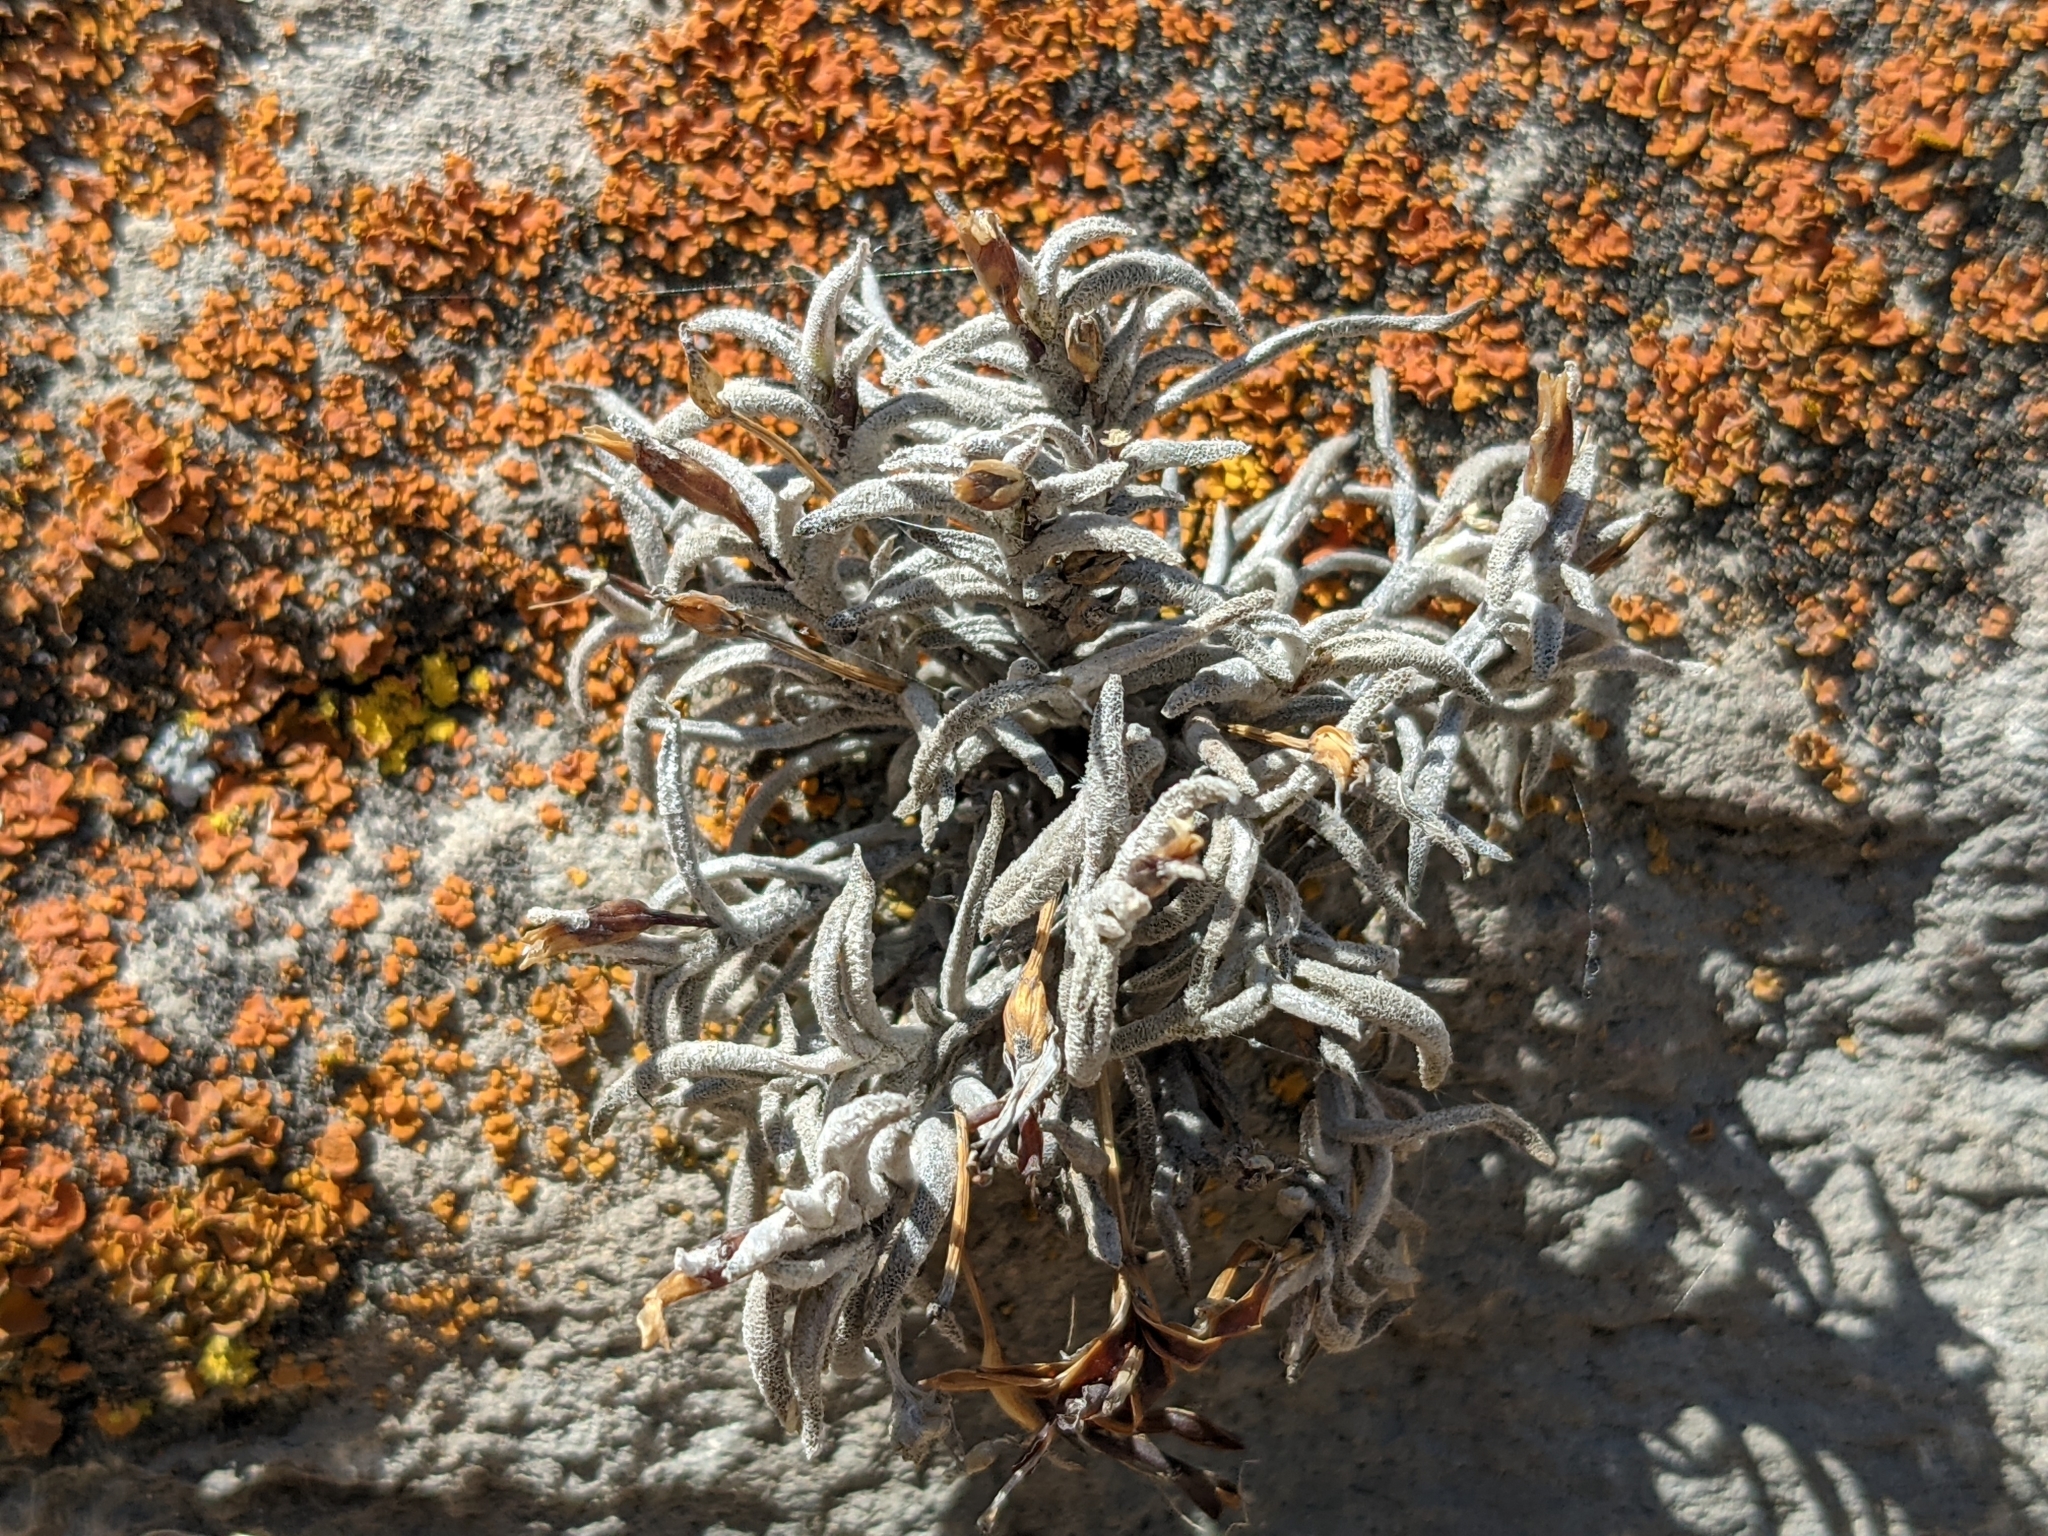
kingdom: Plantae
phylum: Tracheophyta
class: Liliopsida
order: Poales
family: Bromeliaceae
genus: Tillandsia
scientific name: Tillandsia capillaris
